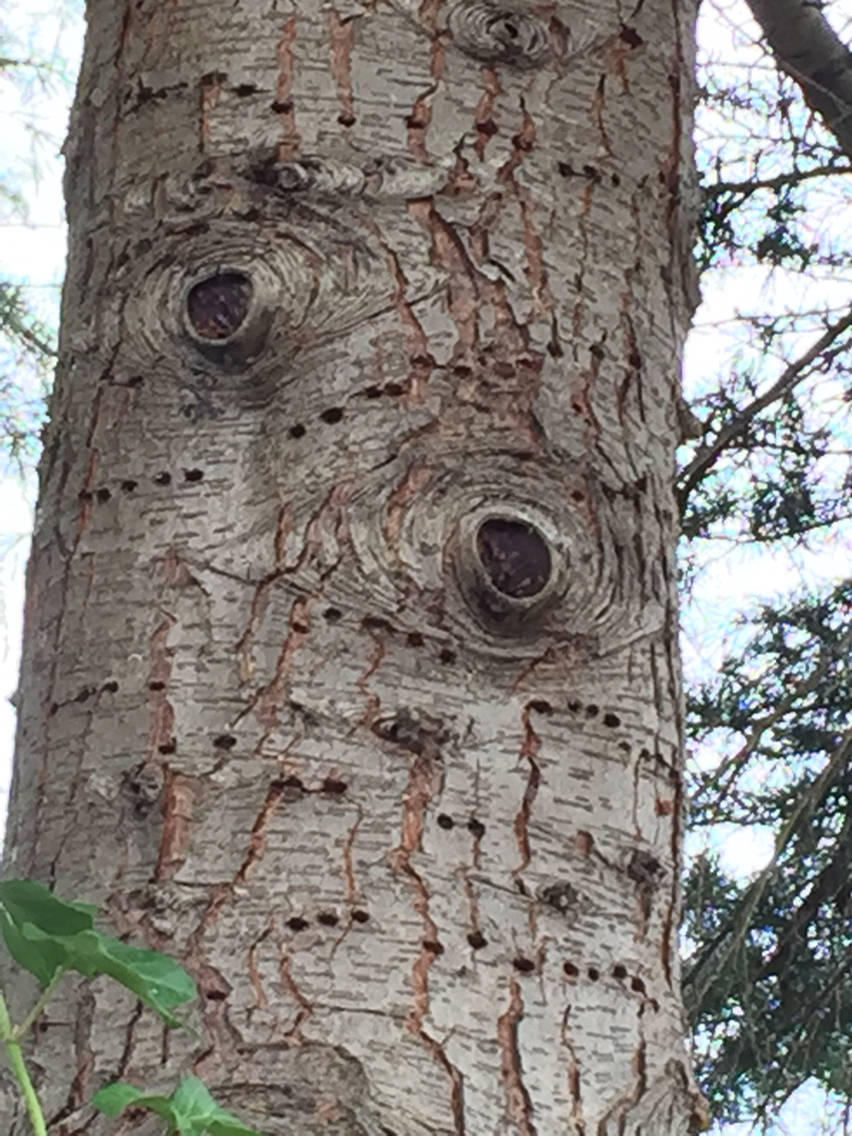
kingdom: Animalia
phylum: Chordata
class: Aves
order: Piciformes
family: Picidae
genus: Sphyrapicus
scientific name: Sphyrapicus
